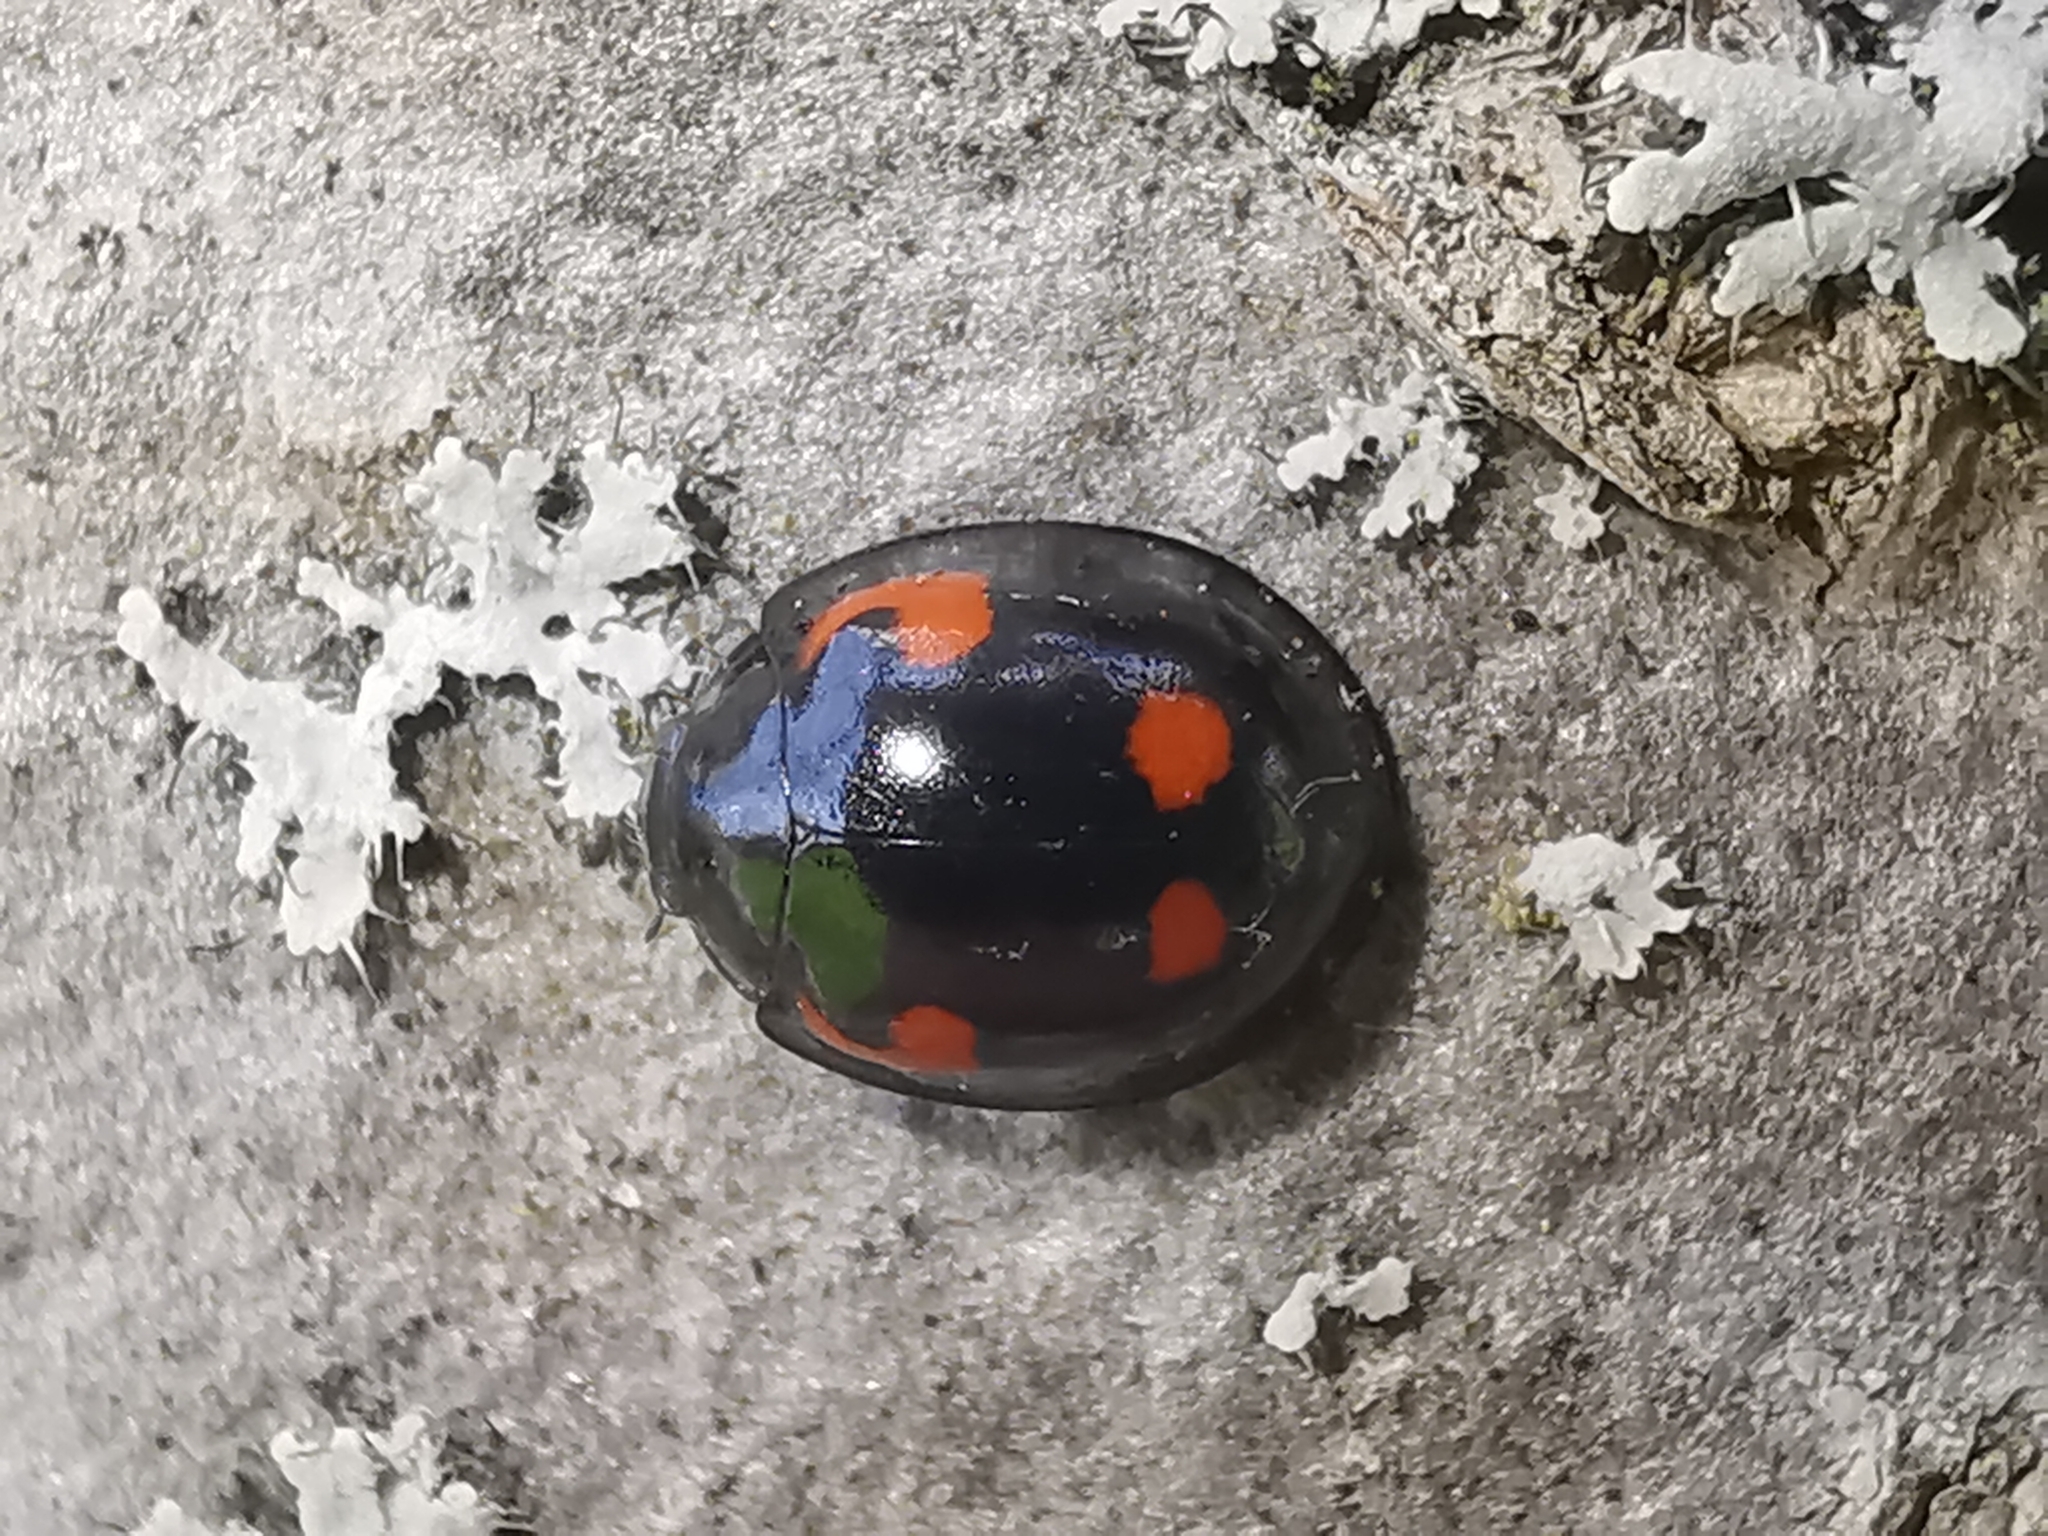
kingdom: Animalia
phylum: Arthropoda
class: Insecta
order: Coleoptera
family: Coccinellidae
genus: Brumus
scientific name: Brumus quadripustulatus
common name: Ladybird beetle
